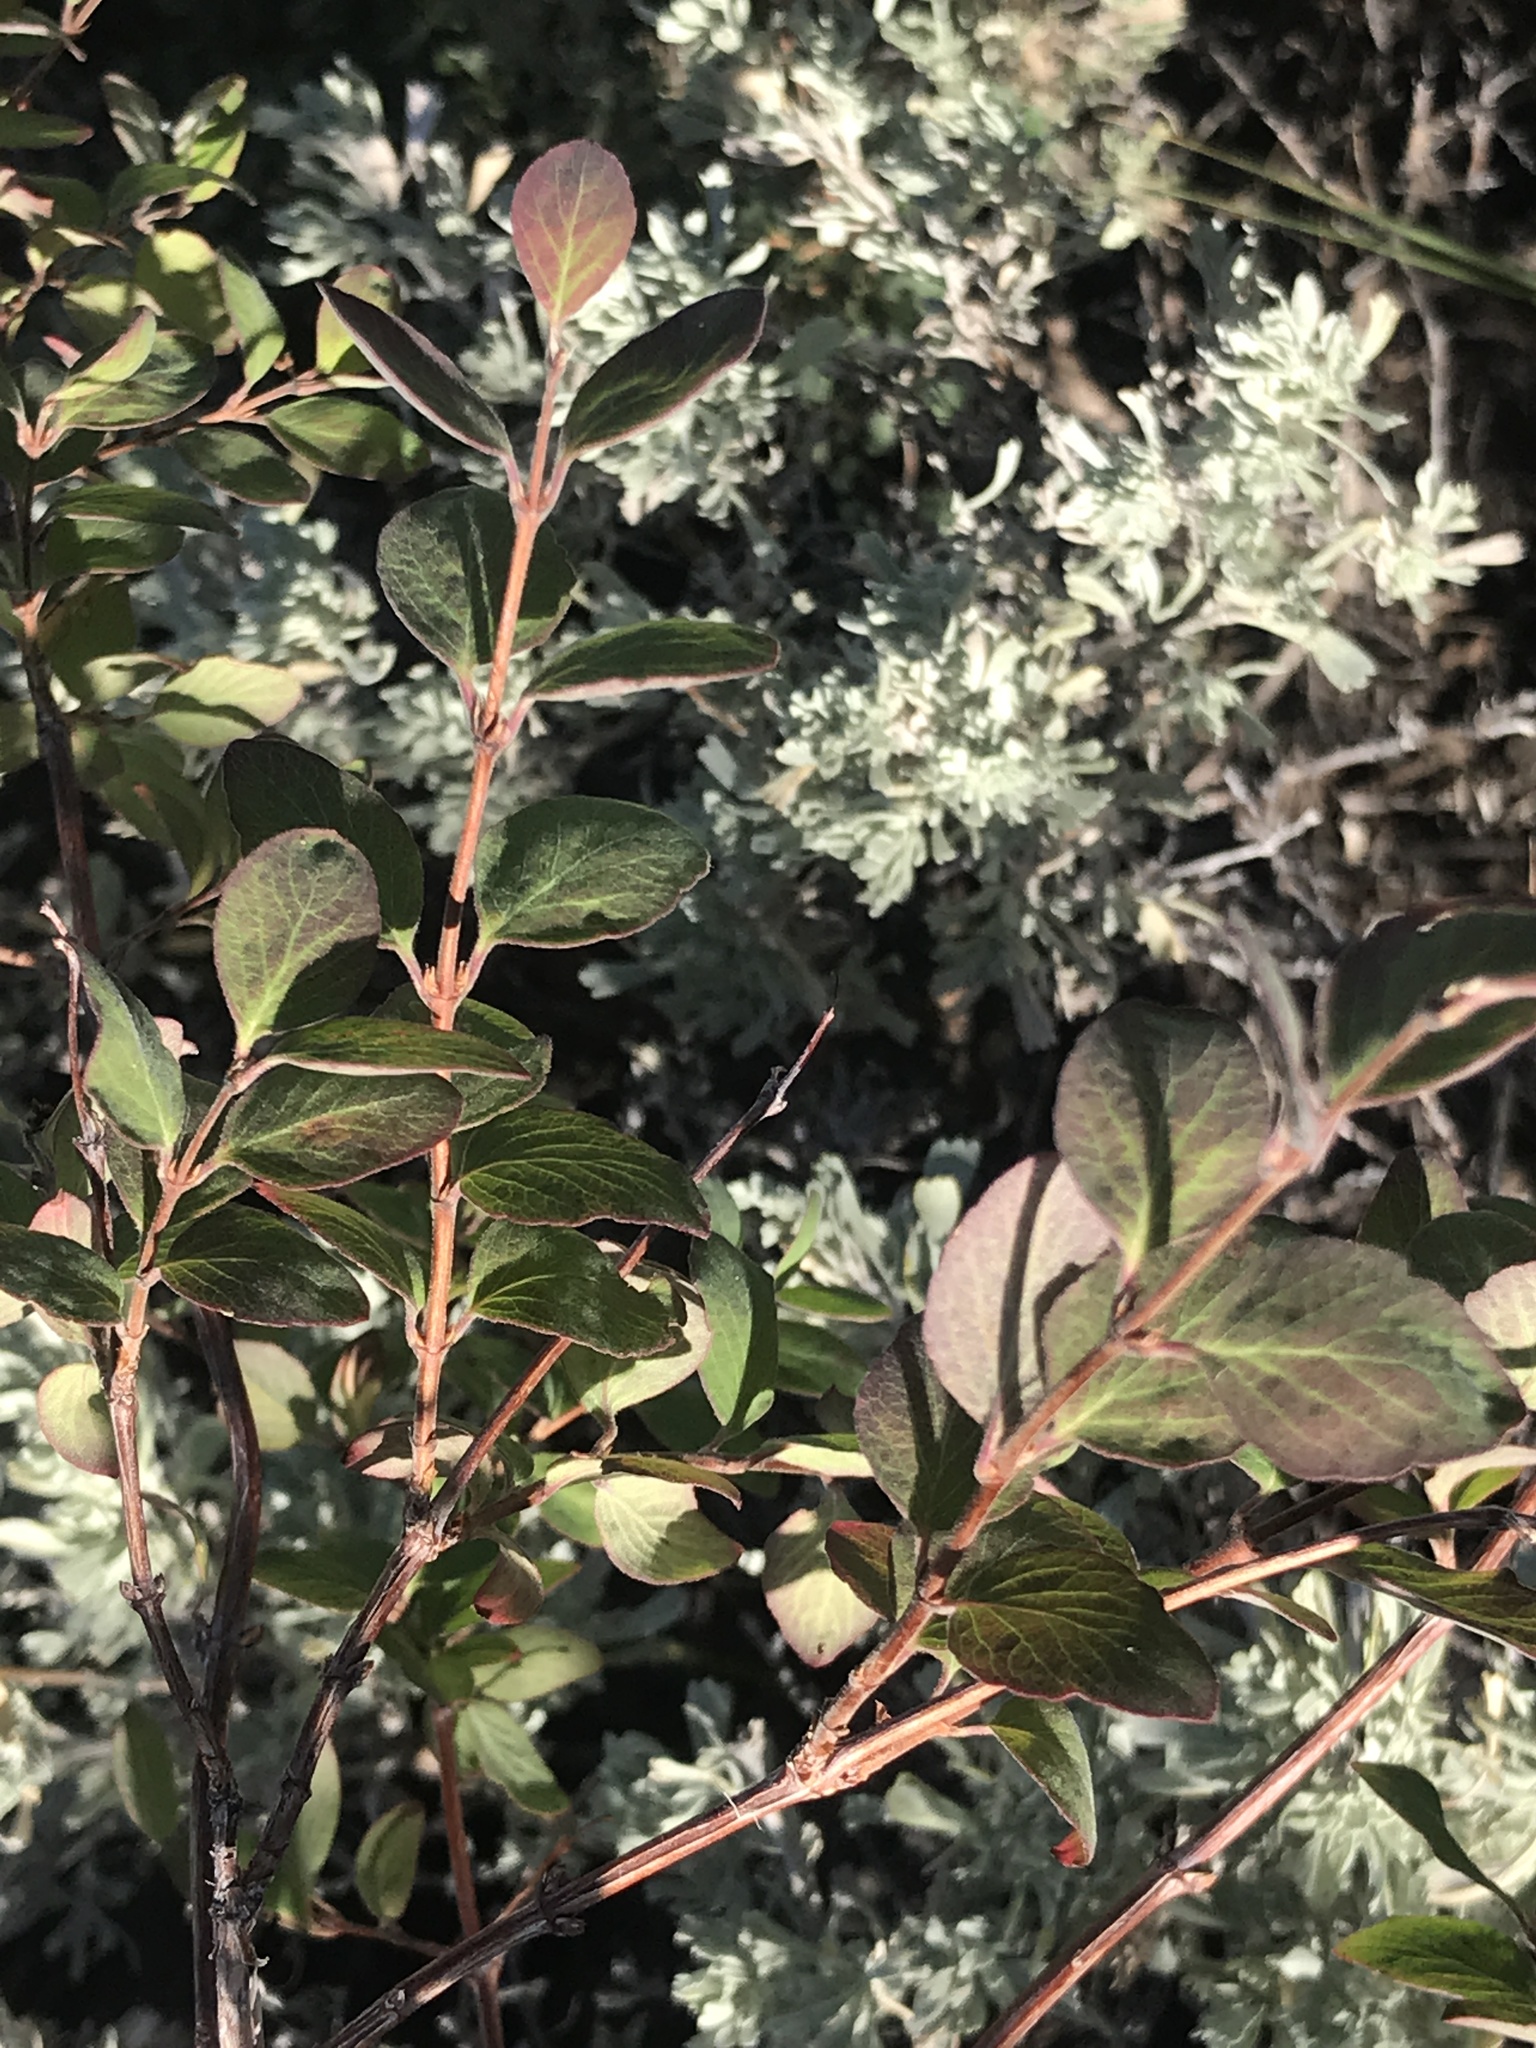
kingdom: Plantae
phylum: Tracheophyta
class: Magnoliopsida
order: Dipsacales
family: Caprifoliaceae
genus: Symphoricarpos
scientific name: Symphoricarpos rotundifolius
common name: Round-leaved snowberry
